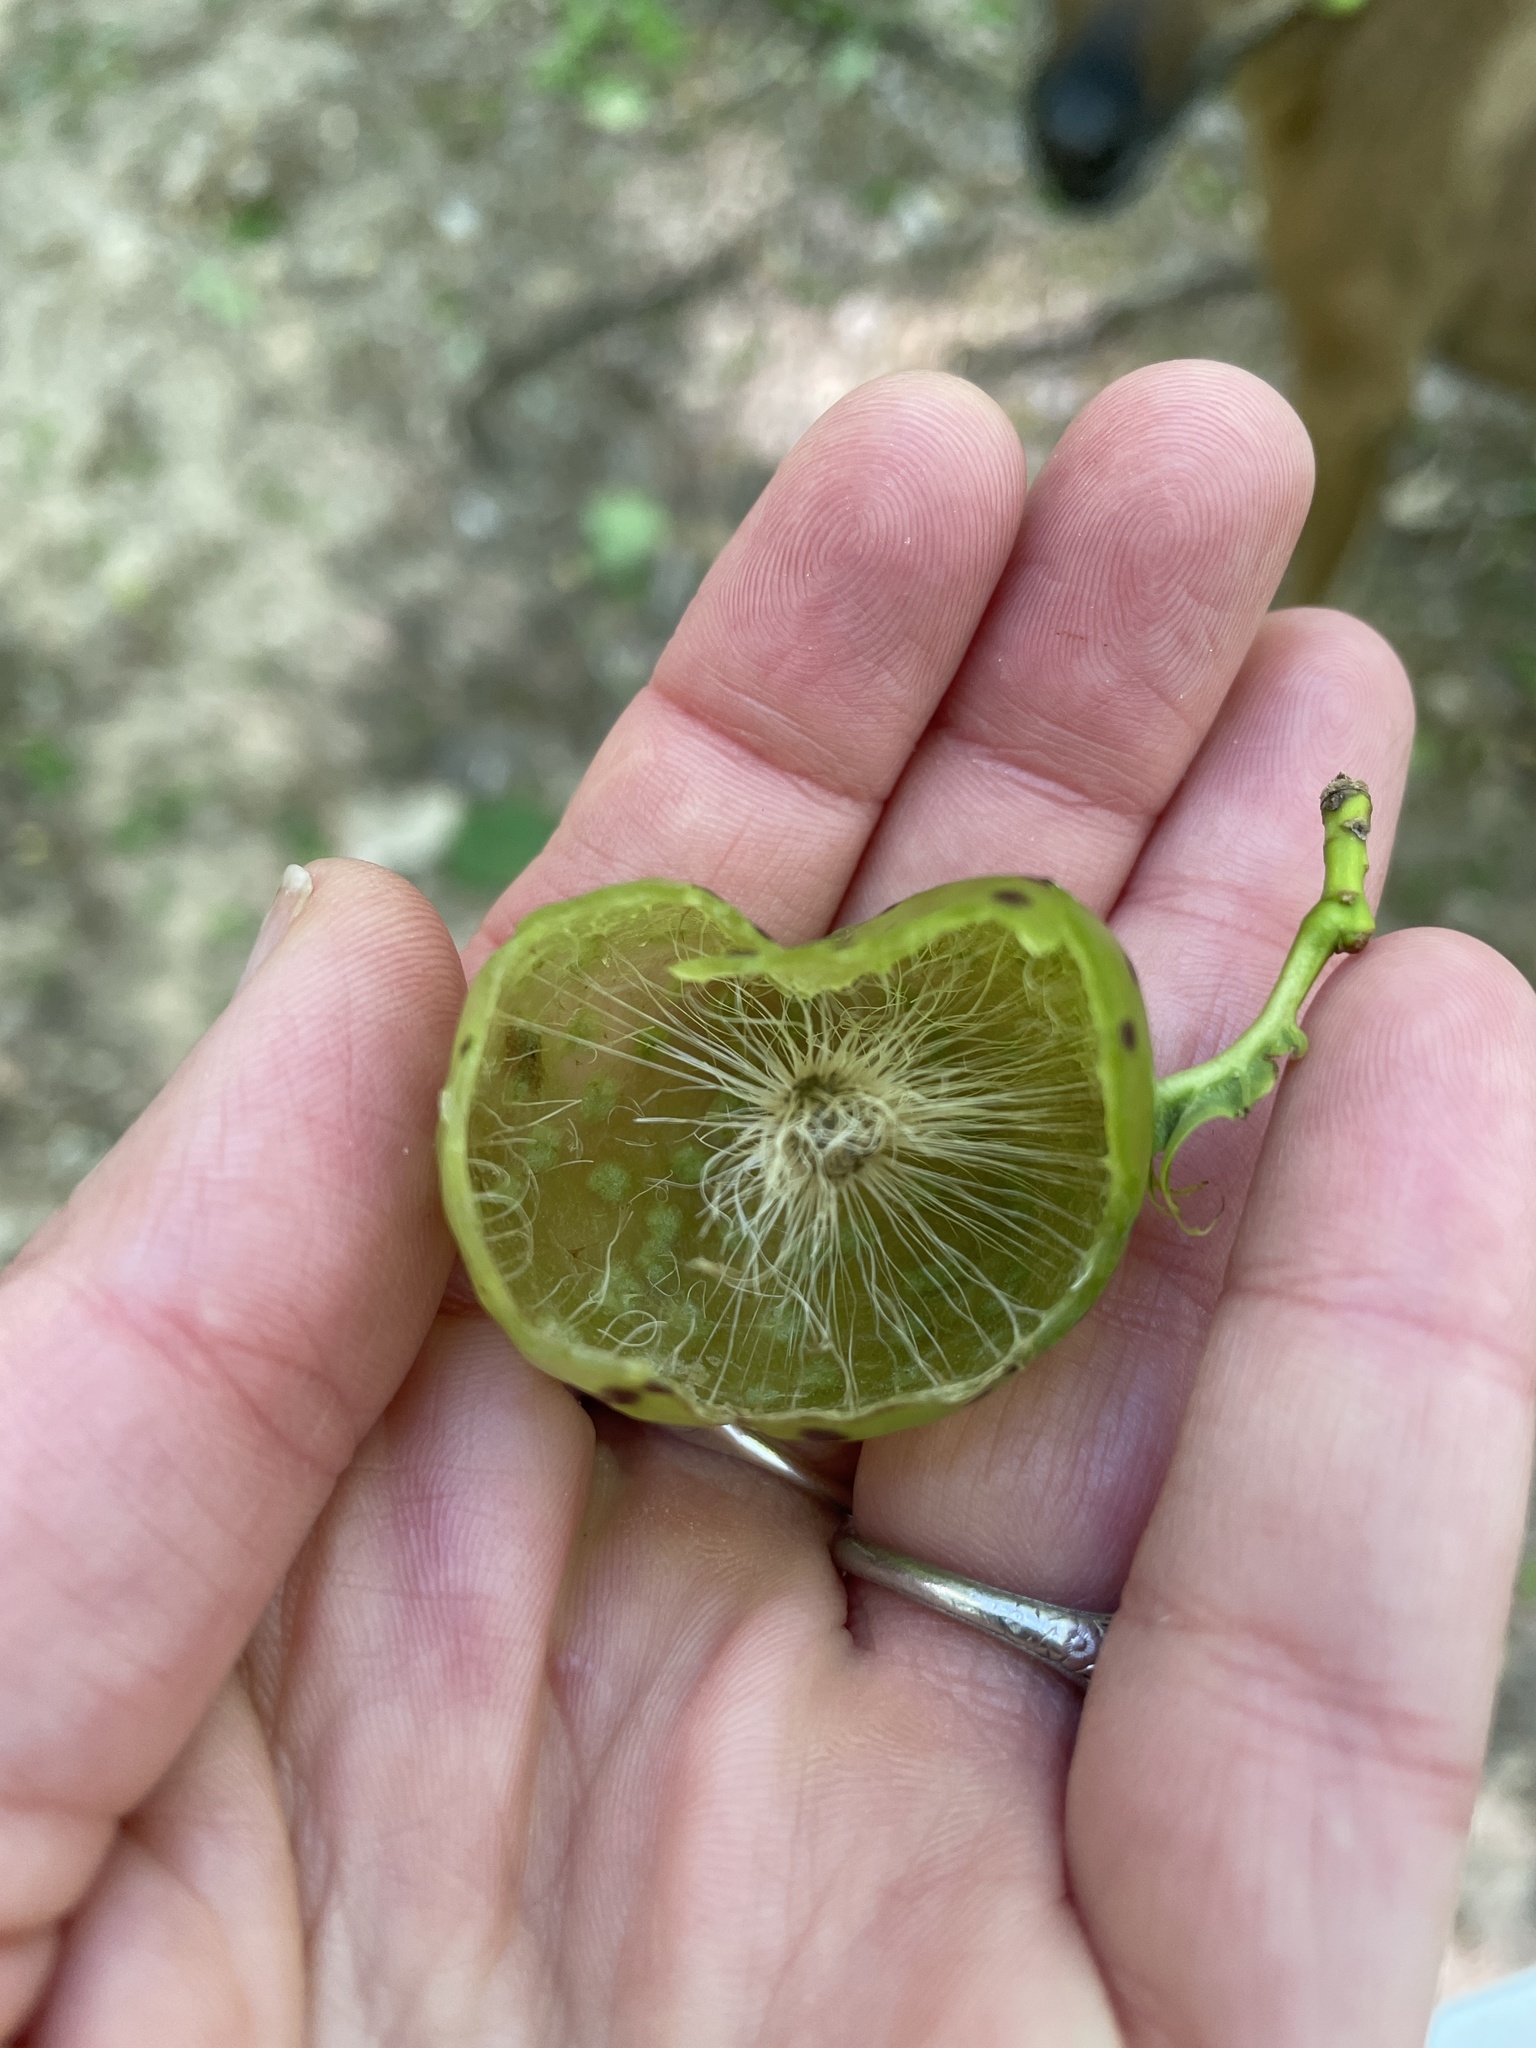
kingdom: Animalia
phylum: Arthropoda
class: Insecta
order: Hymenoptera
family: Cynipidae
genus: Amphibolips
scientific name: Amphibolips
